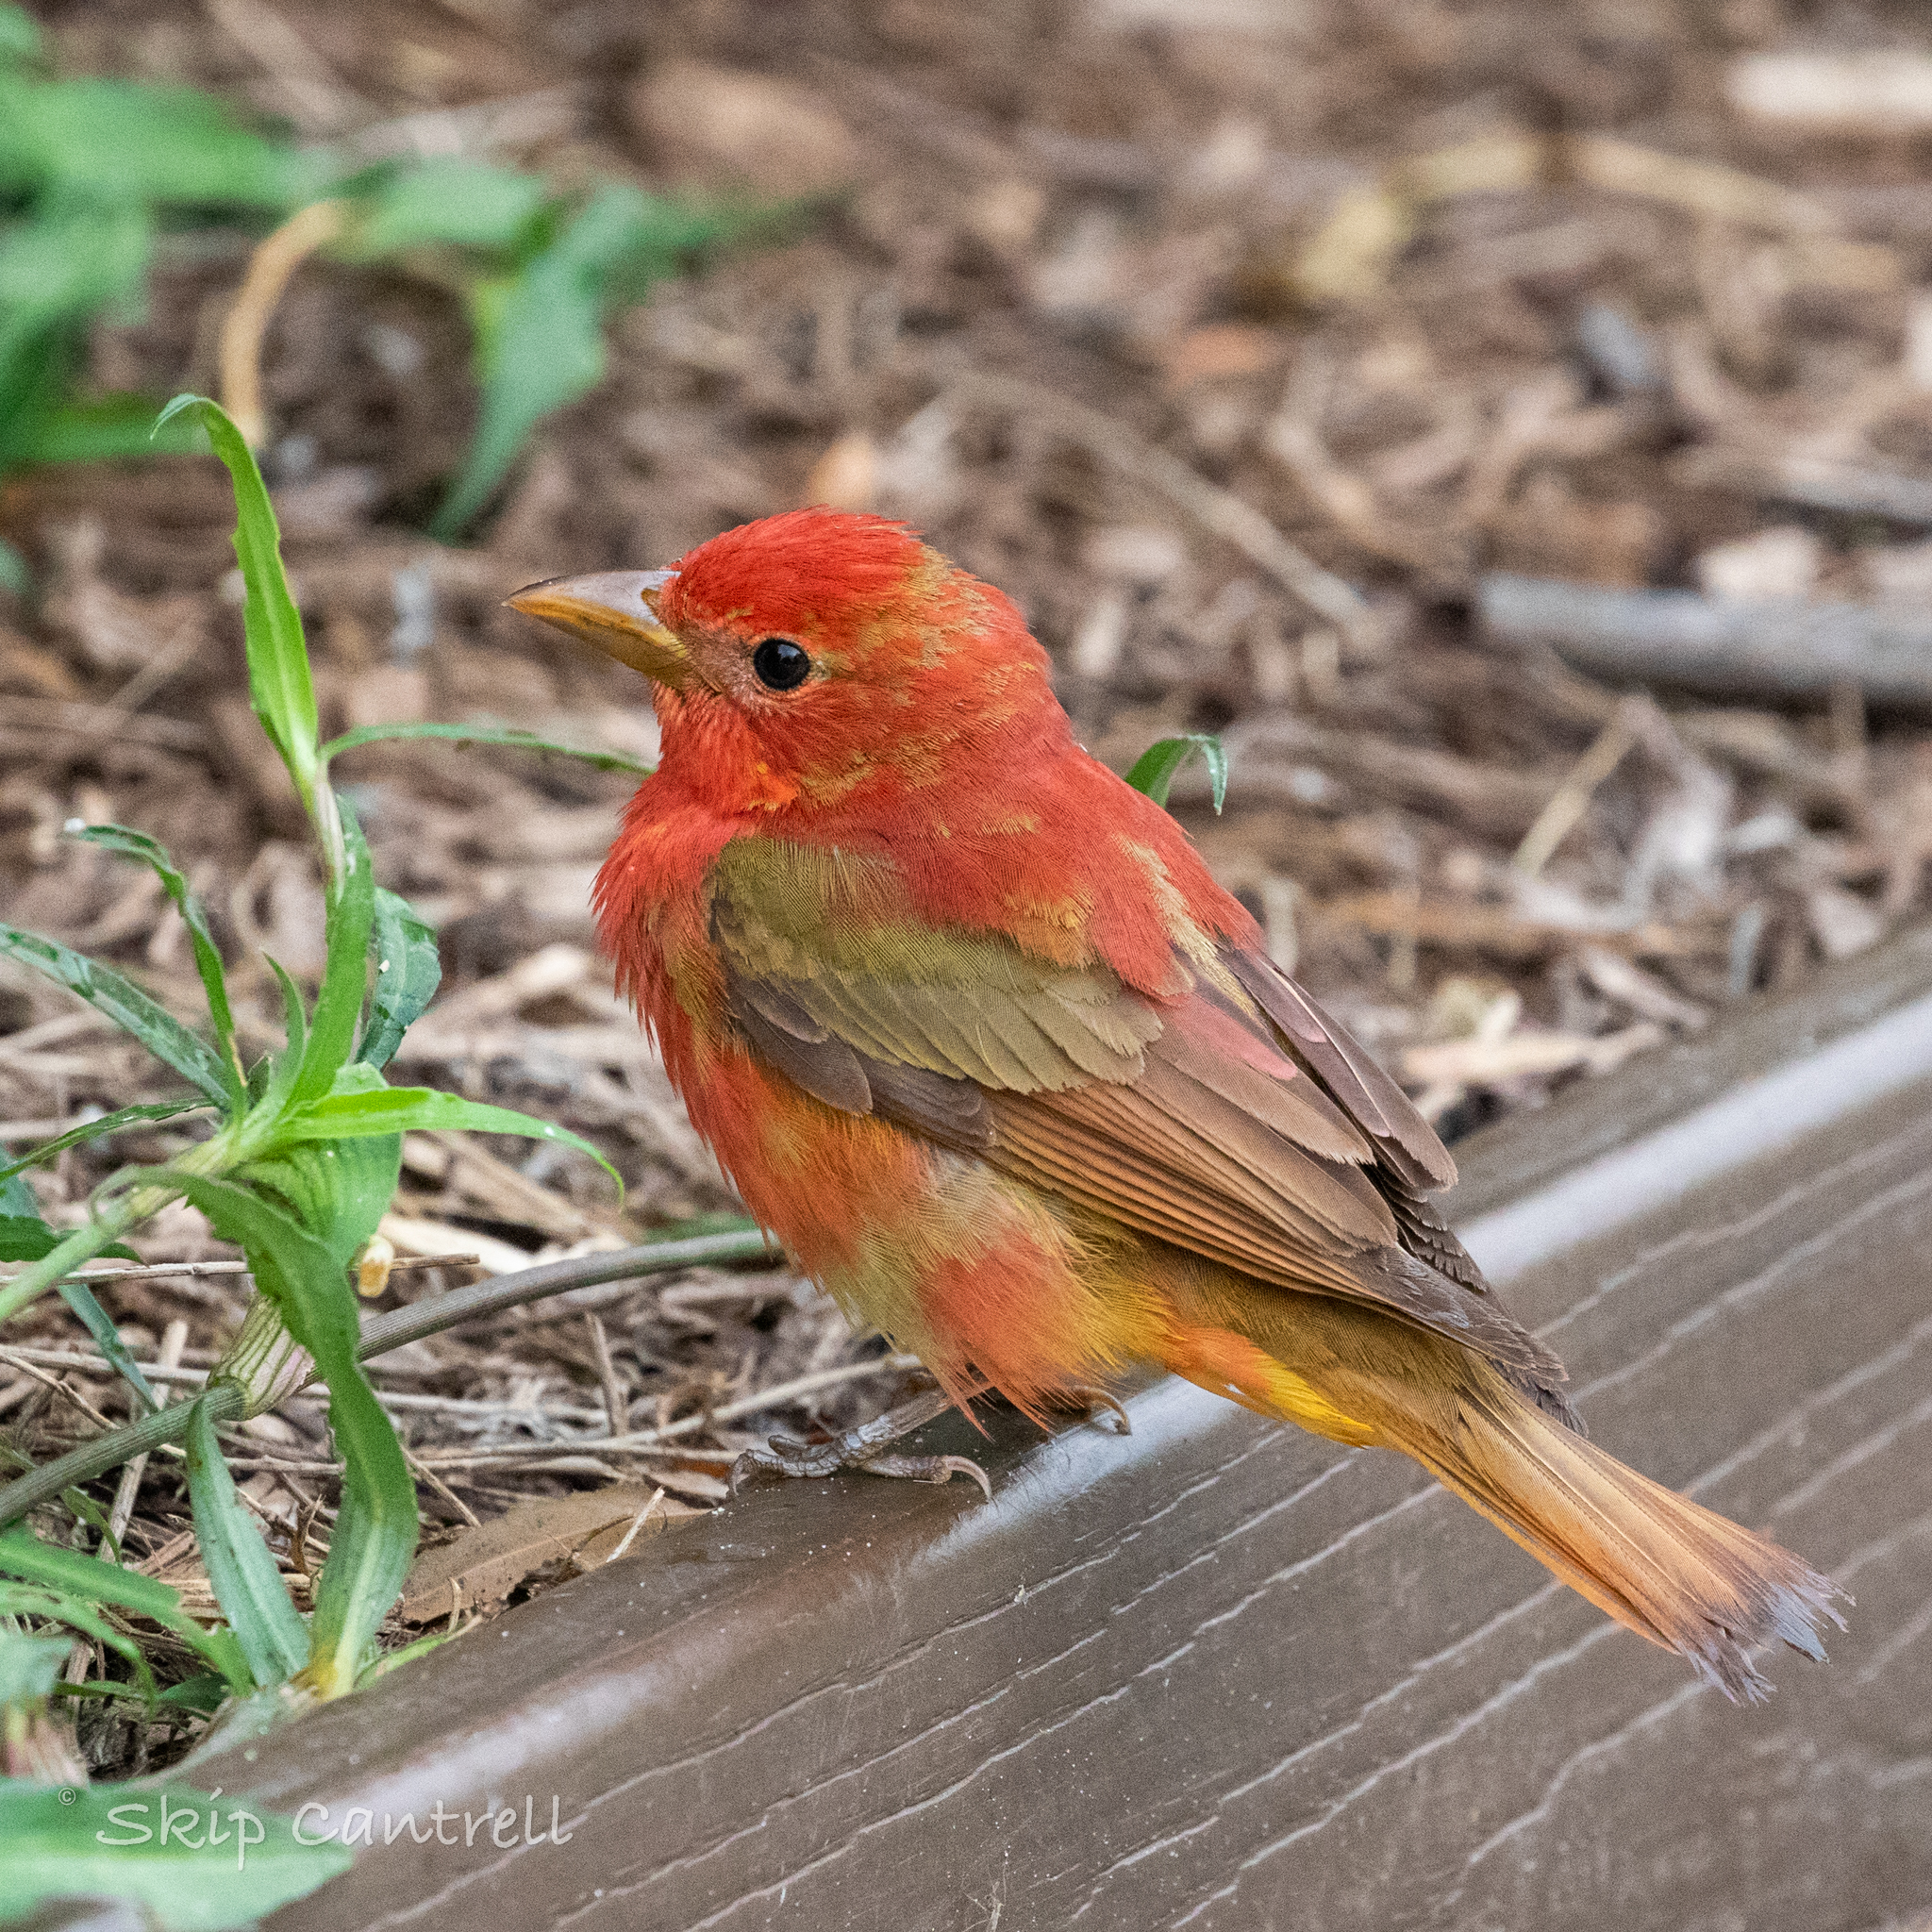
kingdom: Animalia
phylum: Chordata
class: Aves
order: Passeriformes
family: Cardinalidae
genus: Piranga
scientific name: Piranga rubra
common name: Summer tanager
